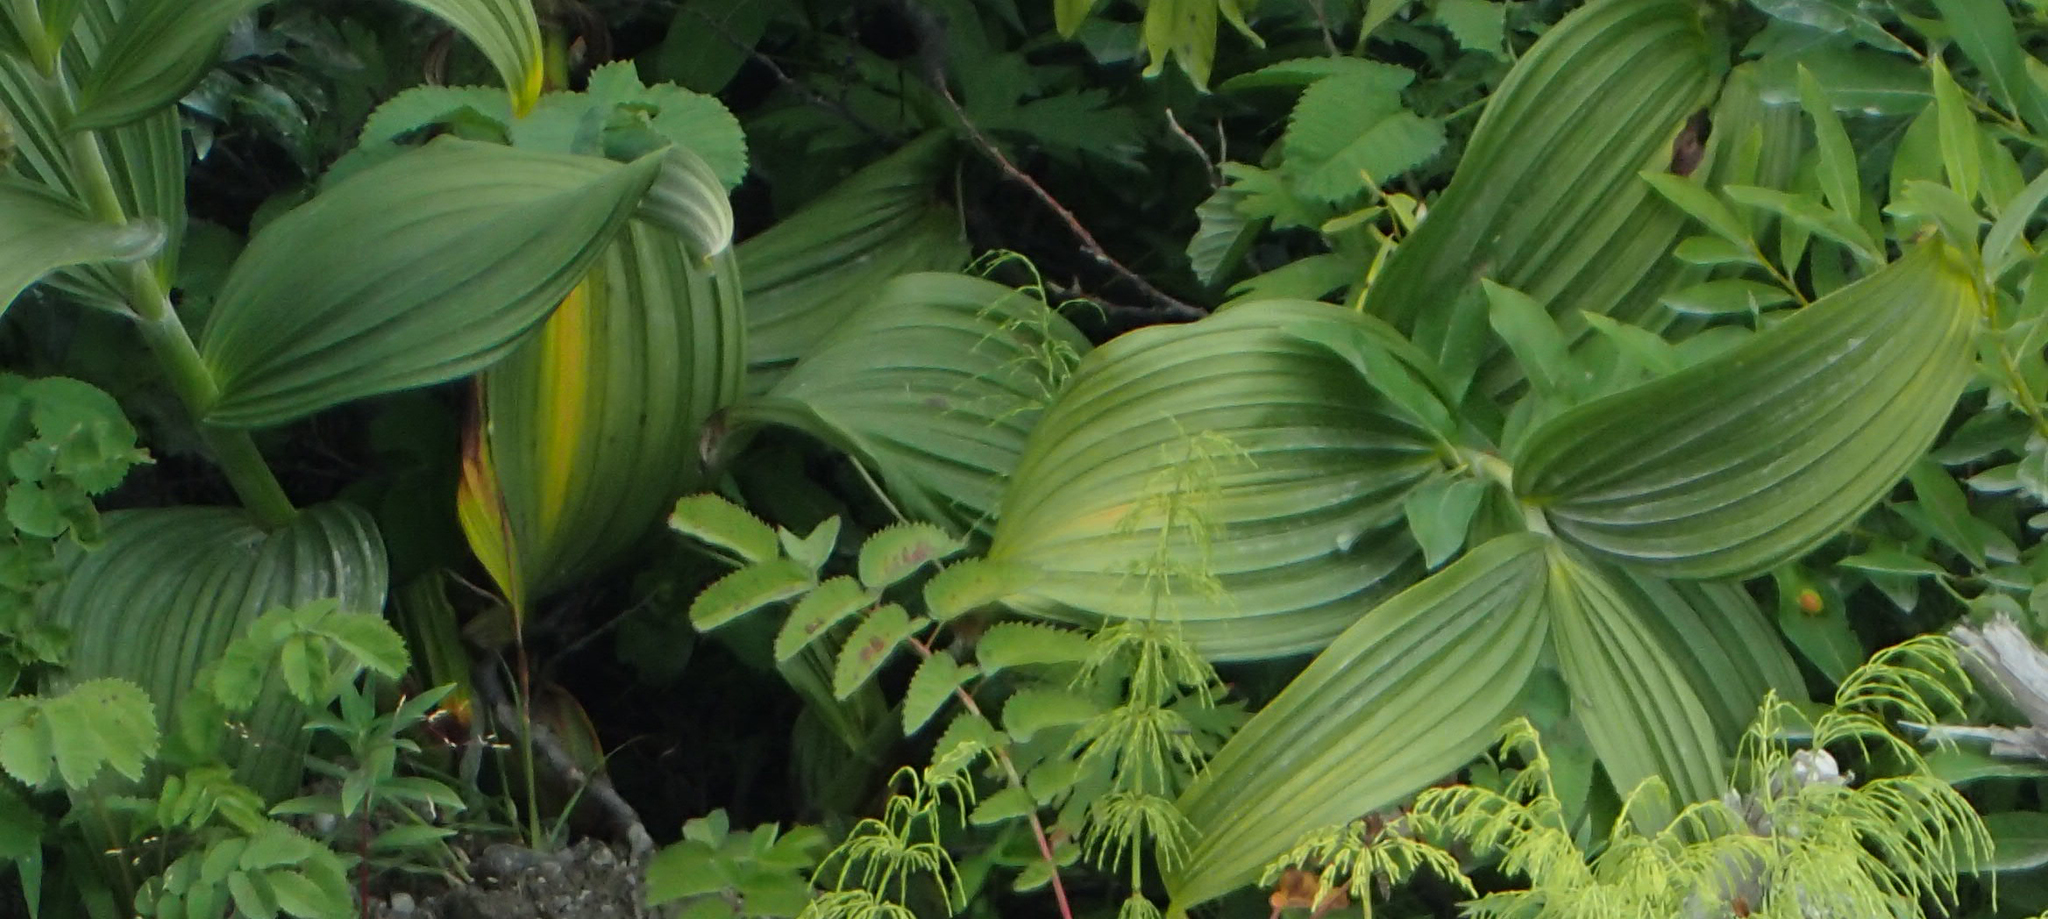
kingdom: Plantae
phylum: Tracheophyta
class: Liliopsida
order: Liliales
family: Melanthiaceae
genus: Veratrum
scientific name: Veratrum viride
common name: American false hellebore
